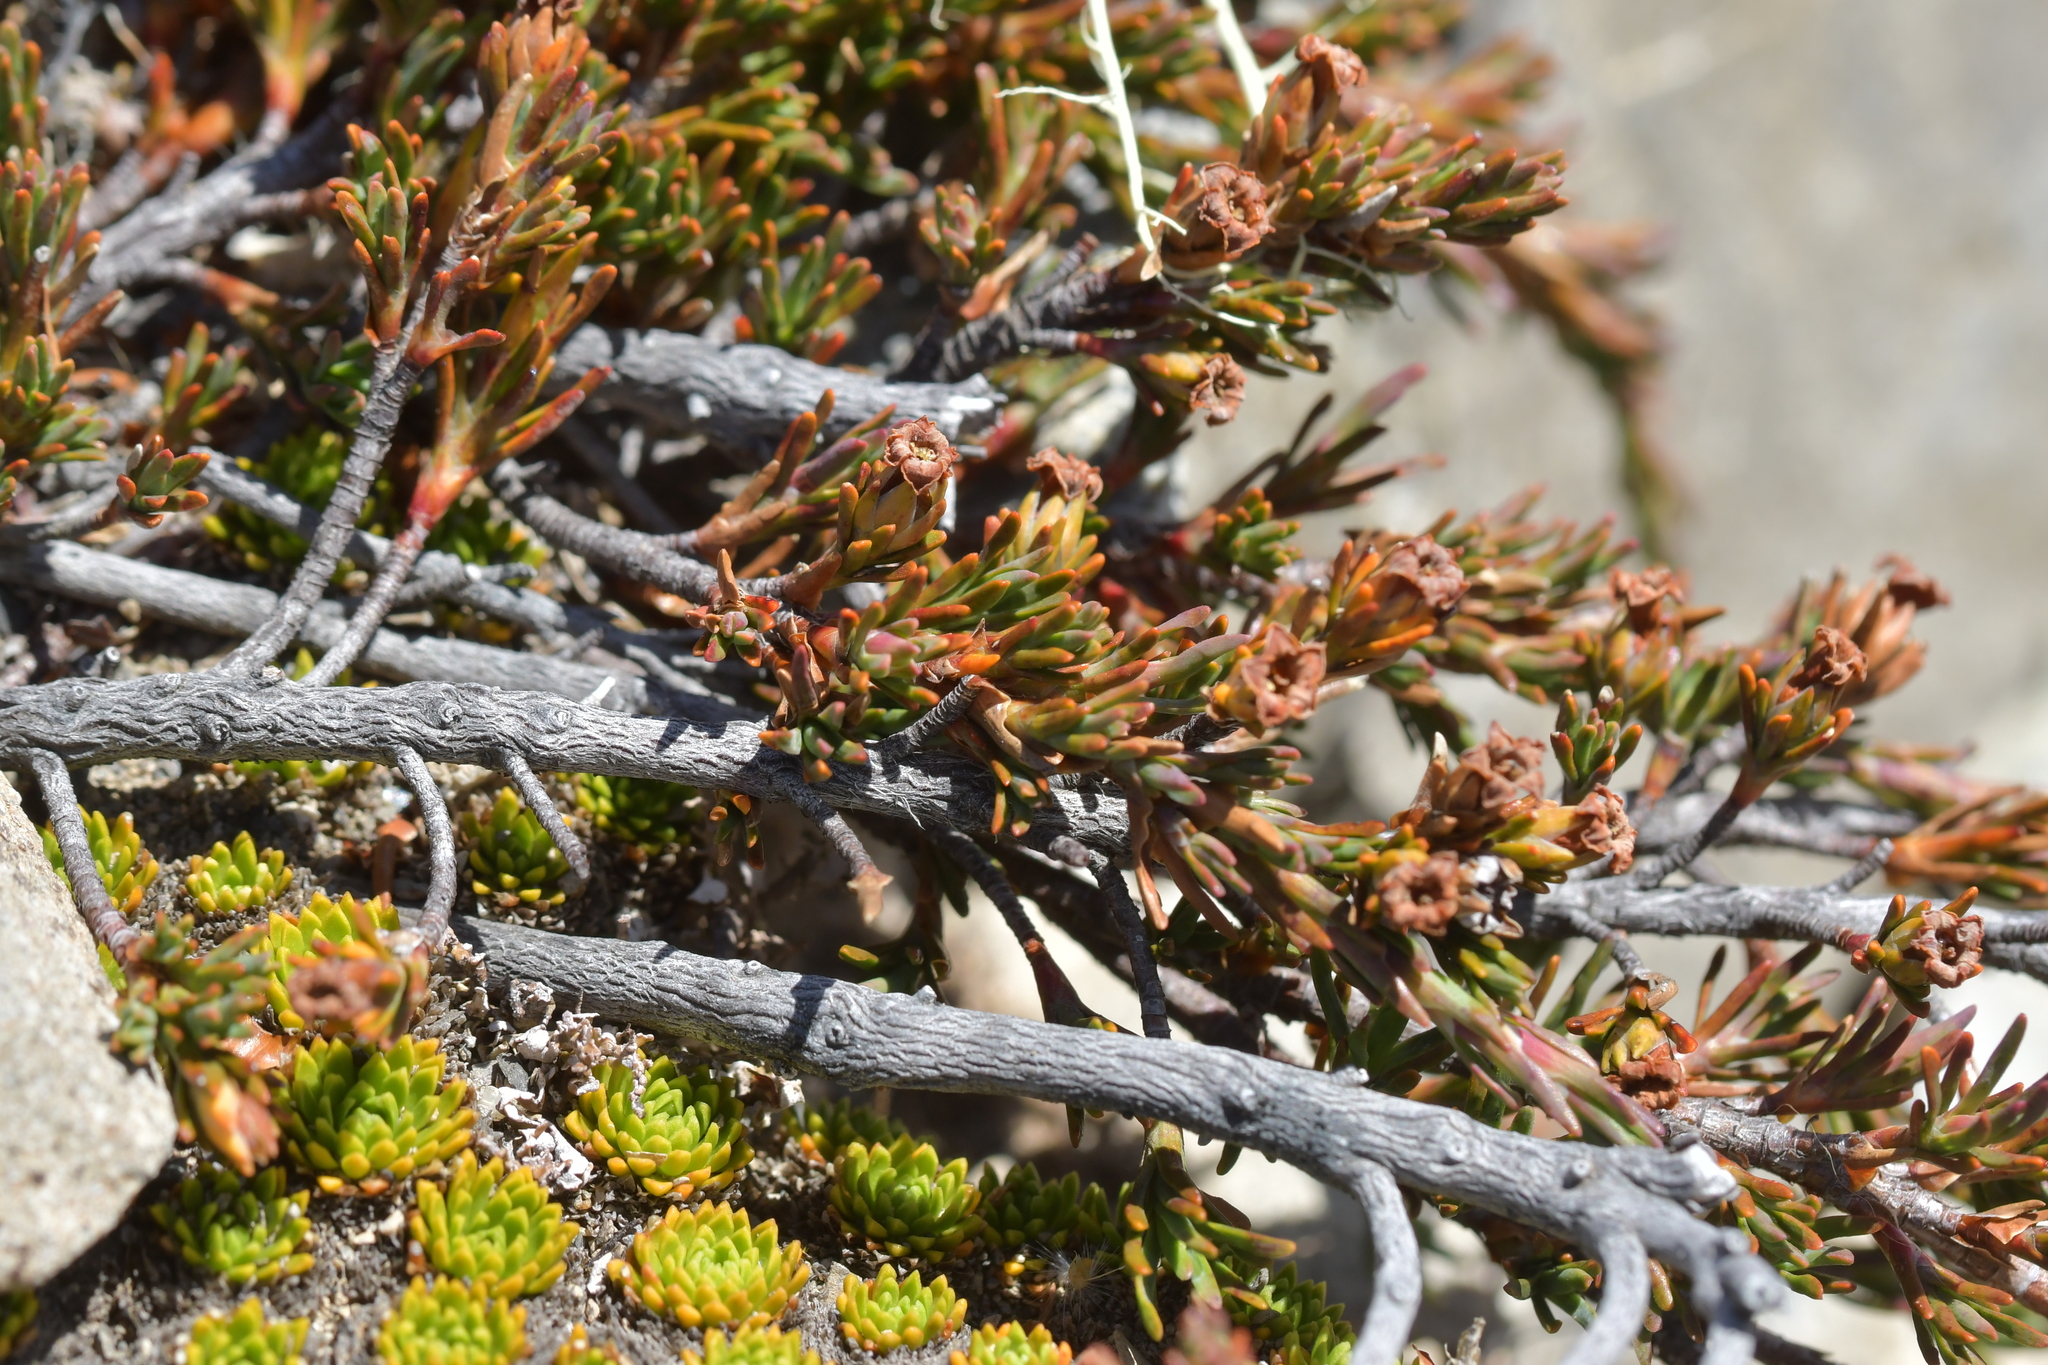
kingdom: Plantae
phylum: Tracheophyta
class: Magnoliopsida
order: Ericales
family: Ericaceae
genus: Dracophyllum
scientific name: Dracophyllum pronum
